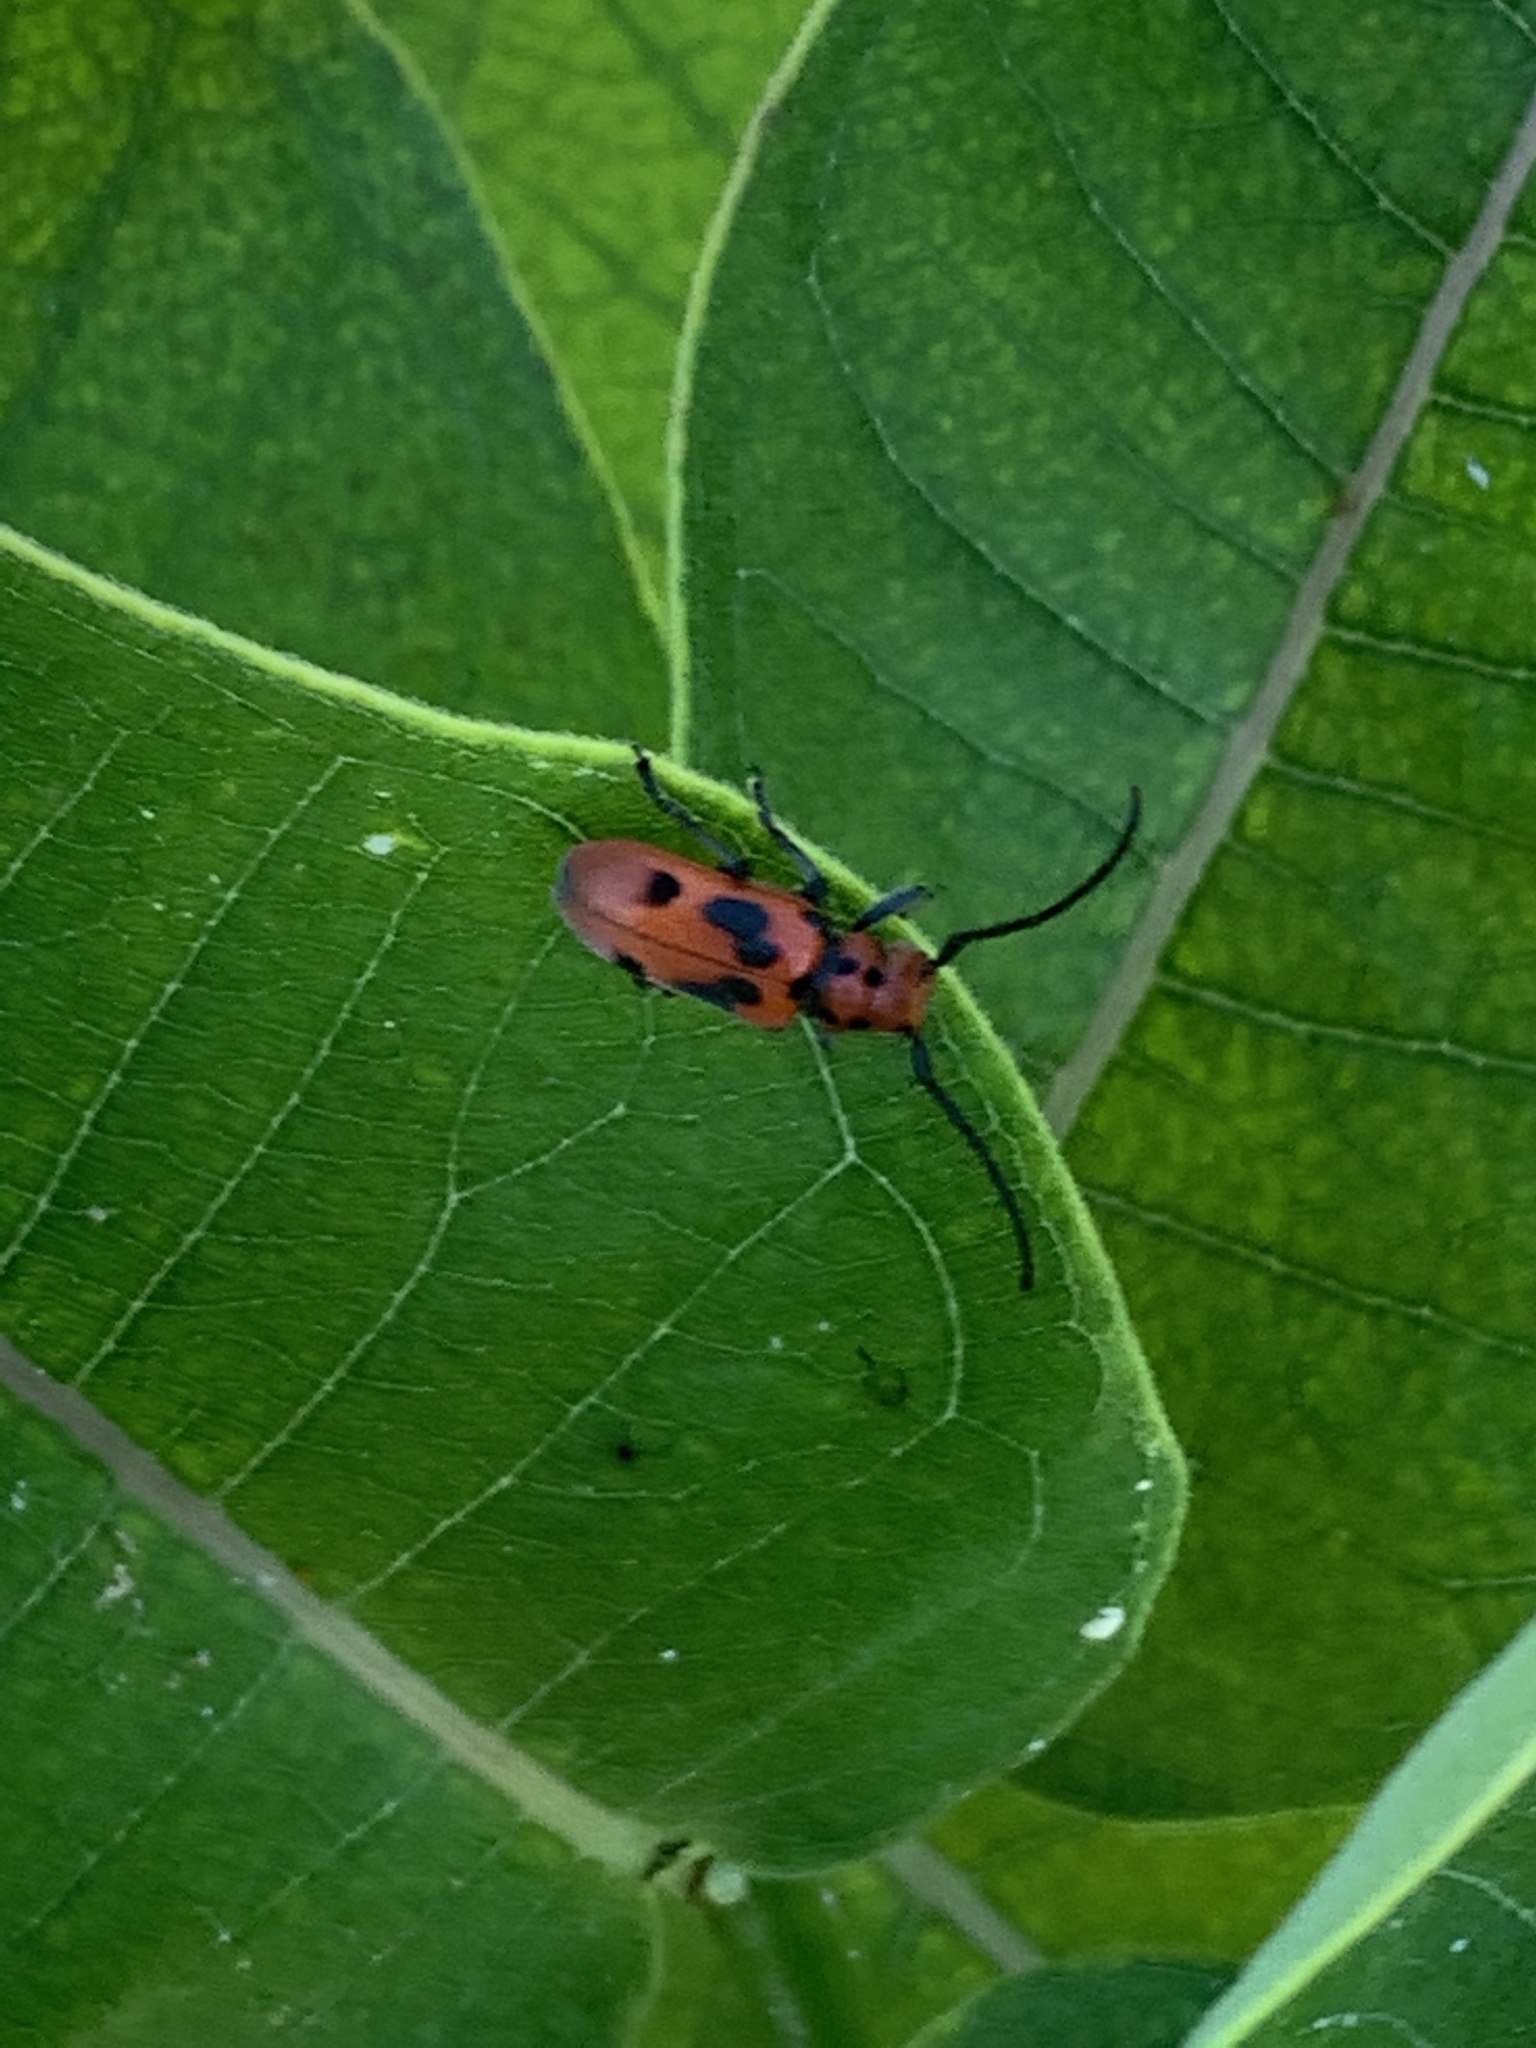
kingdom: Animalia
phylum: Arthropoda
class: Insecta
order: Coleoptera
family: Cerambycidae
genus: Tetraopes
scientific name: Tetraopes tetrophthalmus
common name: Red milkweed beetle
